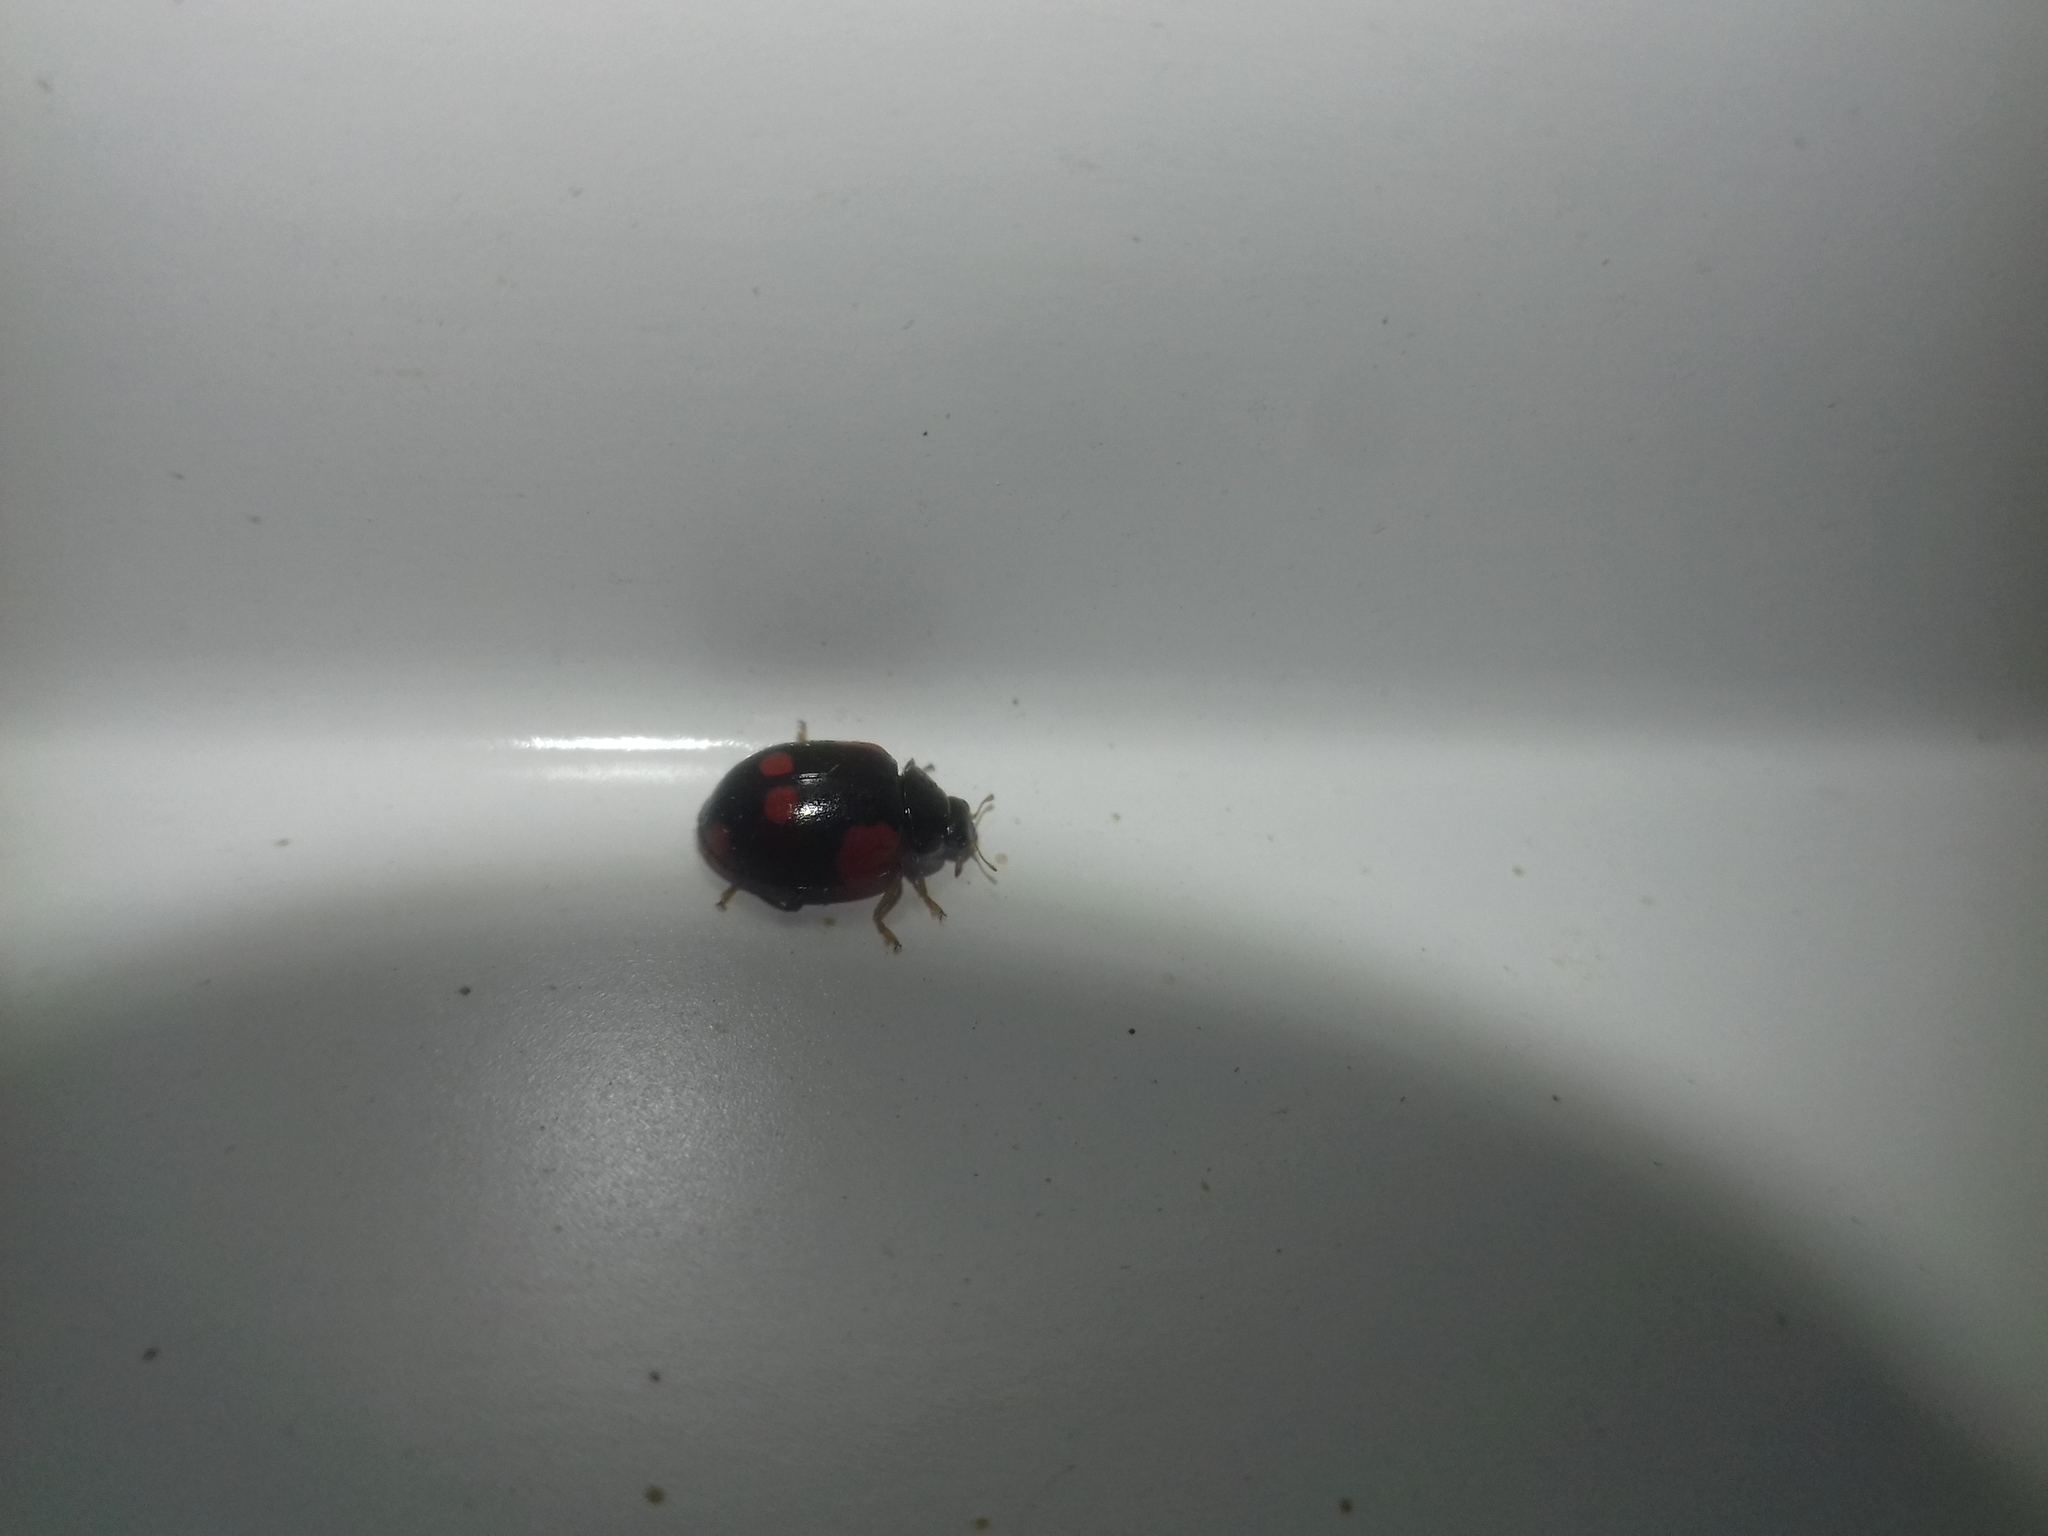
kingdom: Animalia
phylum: Arthropoda
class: Insecta
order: Coleoptera
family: Coccinellidae
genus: Adalia
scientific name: Adalia bipunctata
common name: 2-spot ladybird
